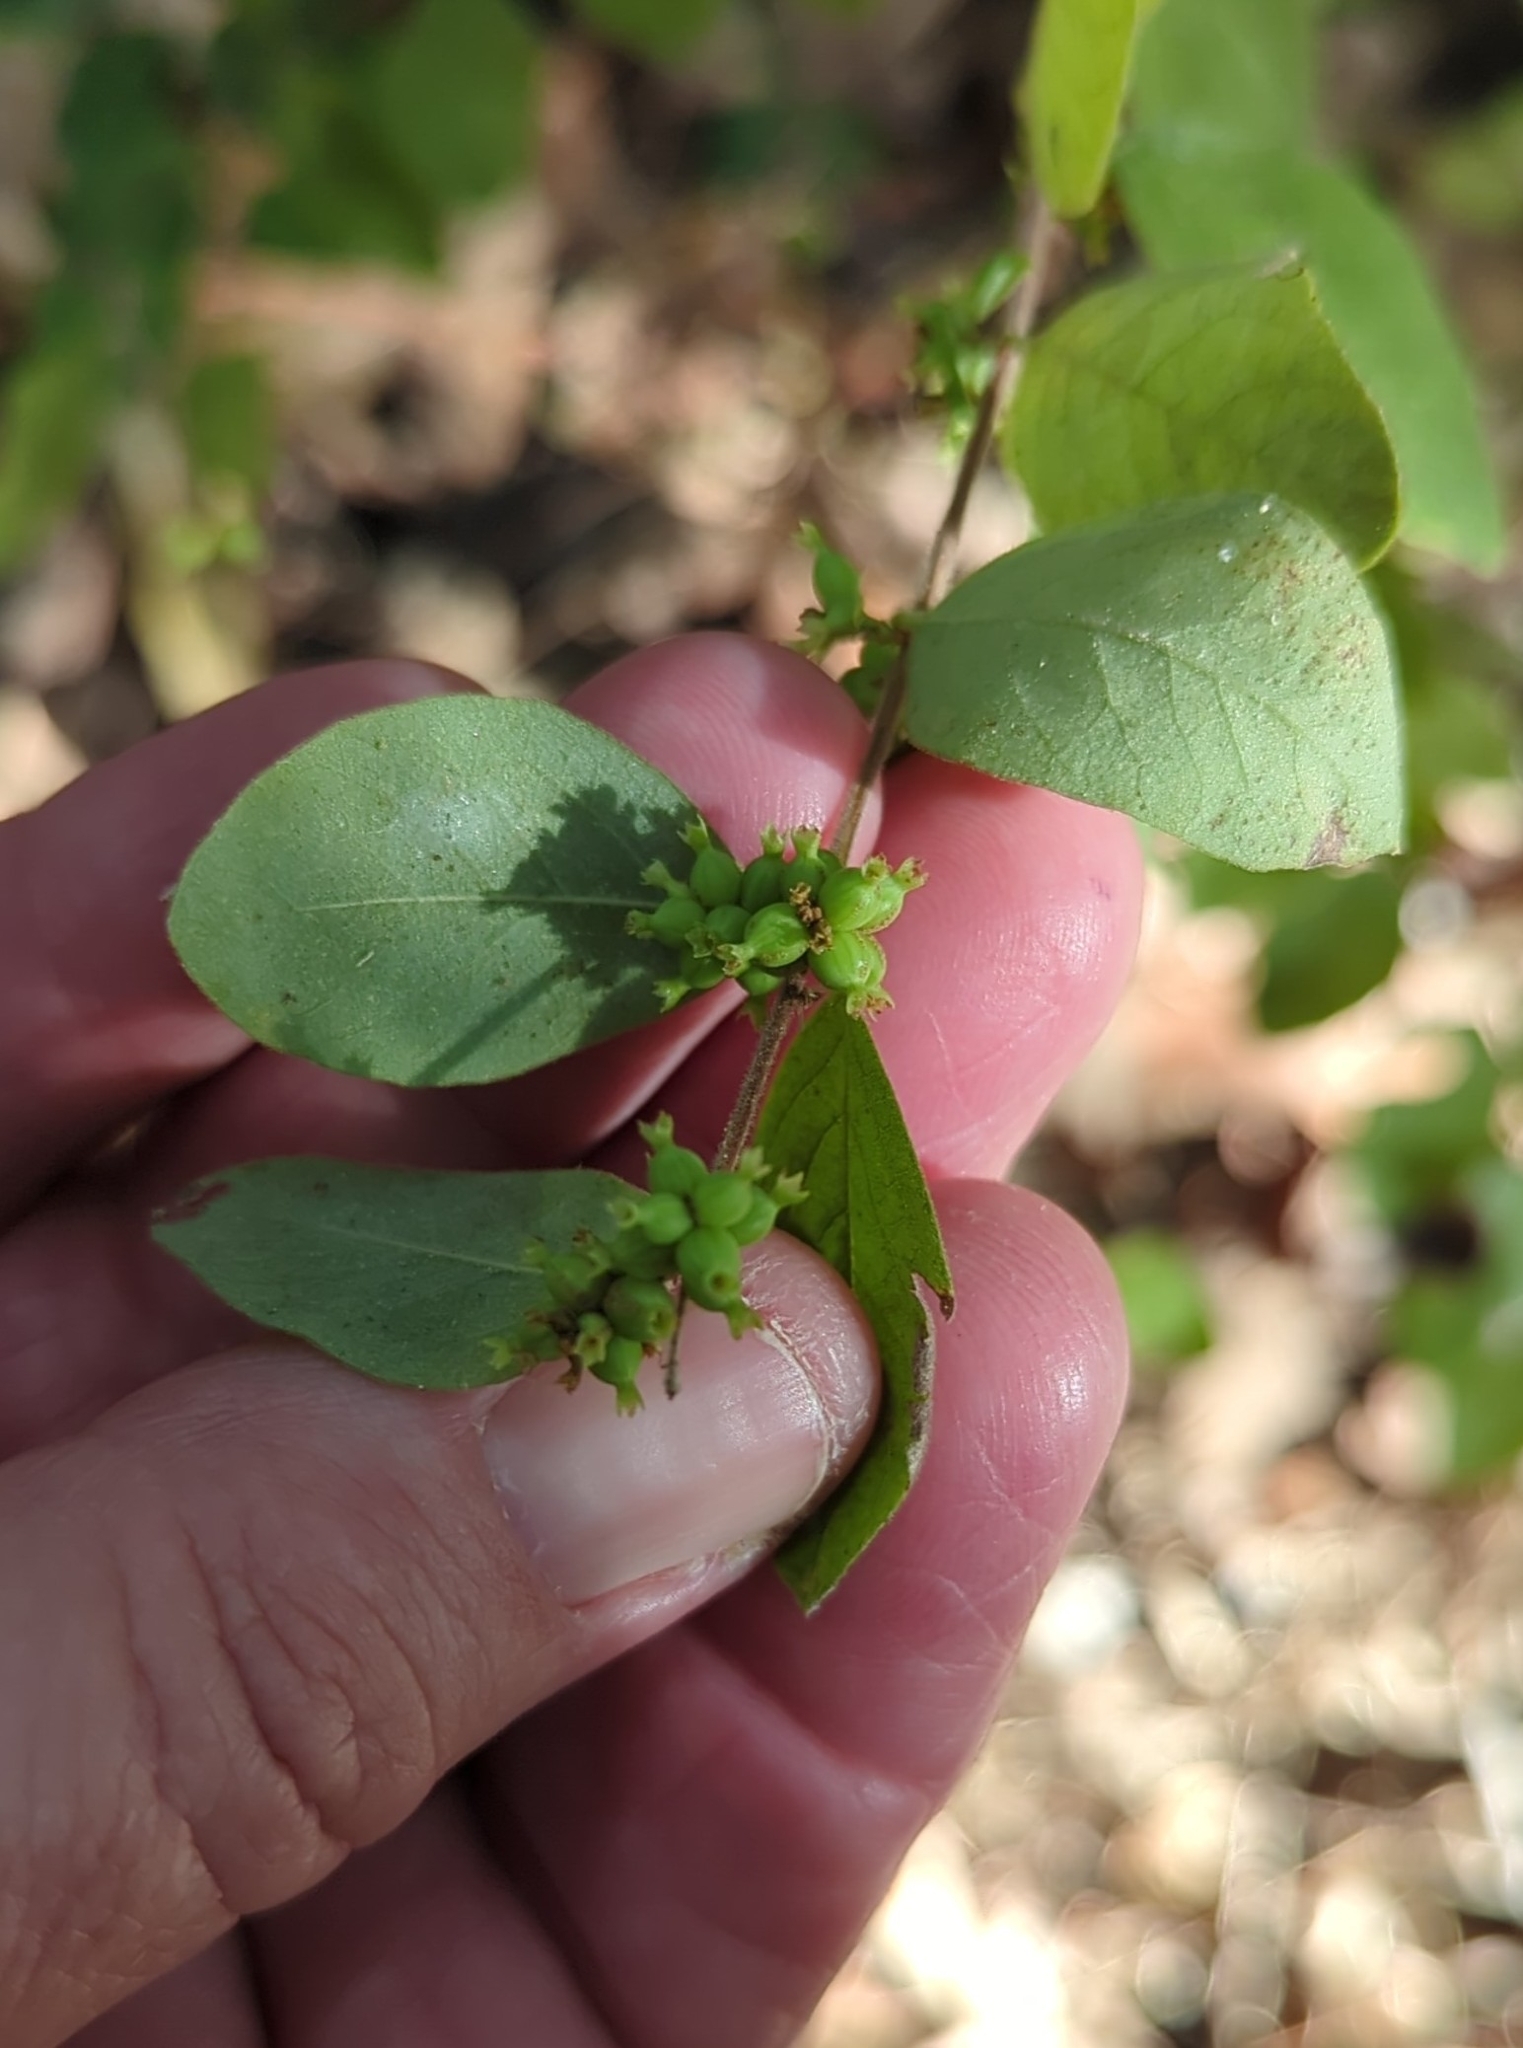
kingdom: Plantae
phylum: Tracheophyta
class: Magnoliopsida
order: Dipsacales
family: Caprifoliaceae
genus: Symphoricarpos
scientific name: Symphoricarpos orbiculatus
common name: Coralberry
